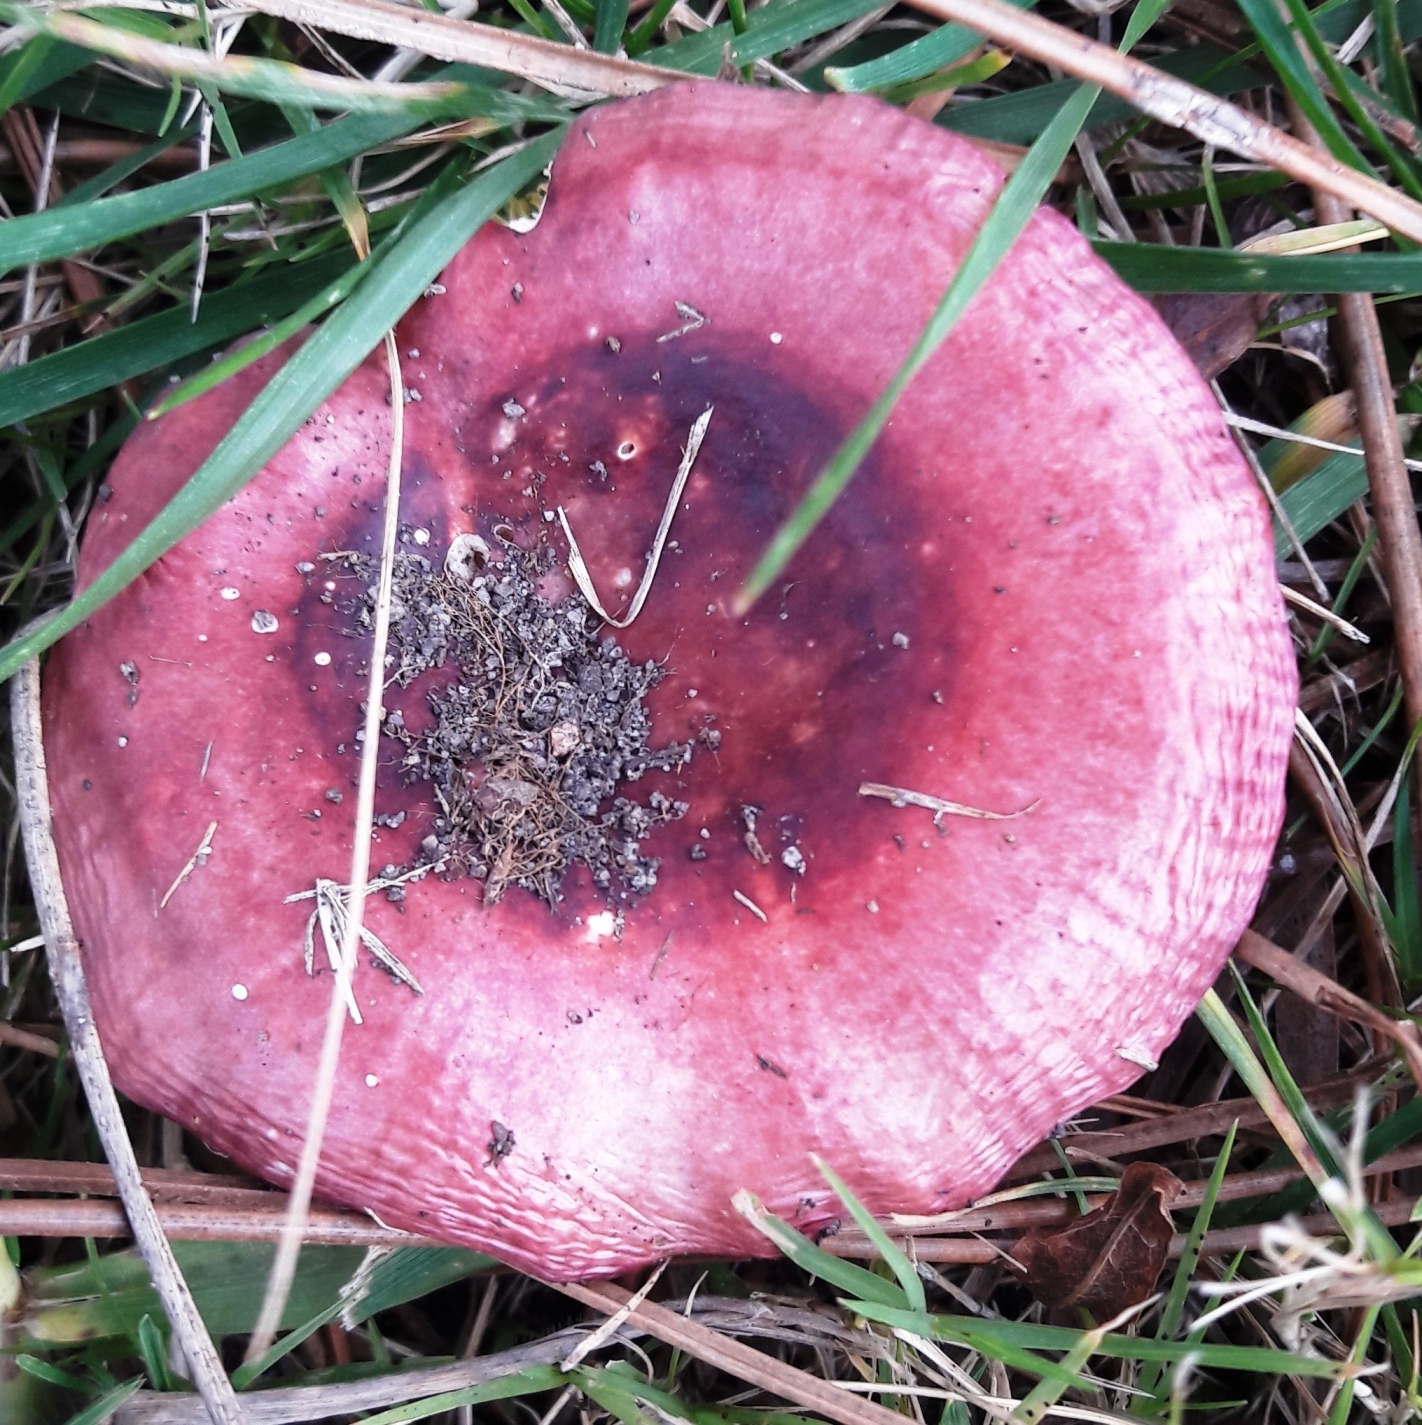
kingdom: Fungi
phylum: Basidiomycota
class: Agaricomycetes
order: Russulales
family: Russulaceae
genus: Russula
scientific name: Russula capensis
